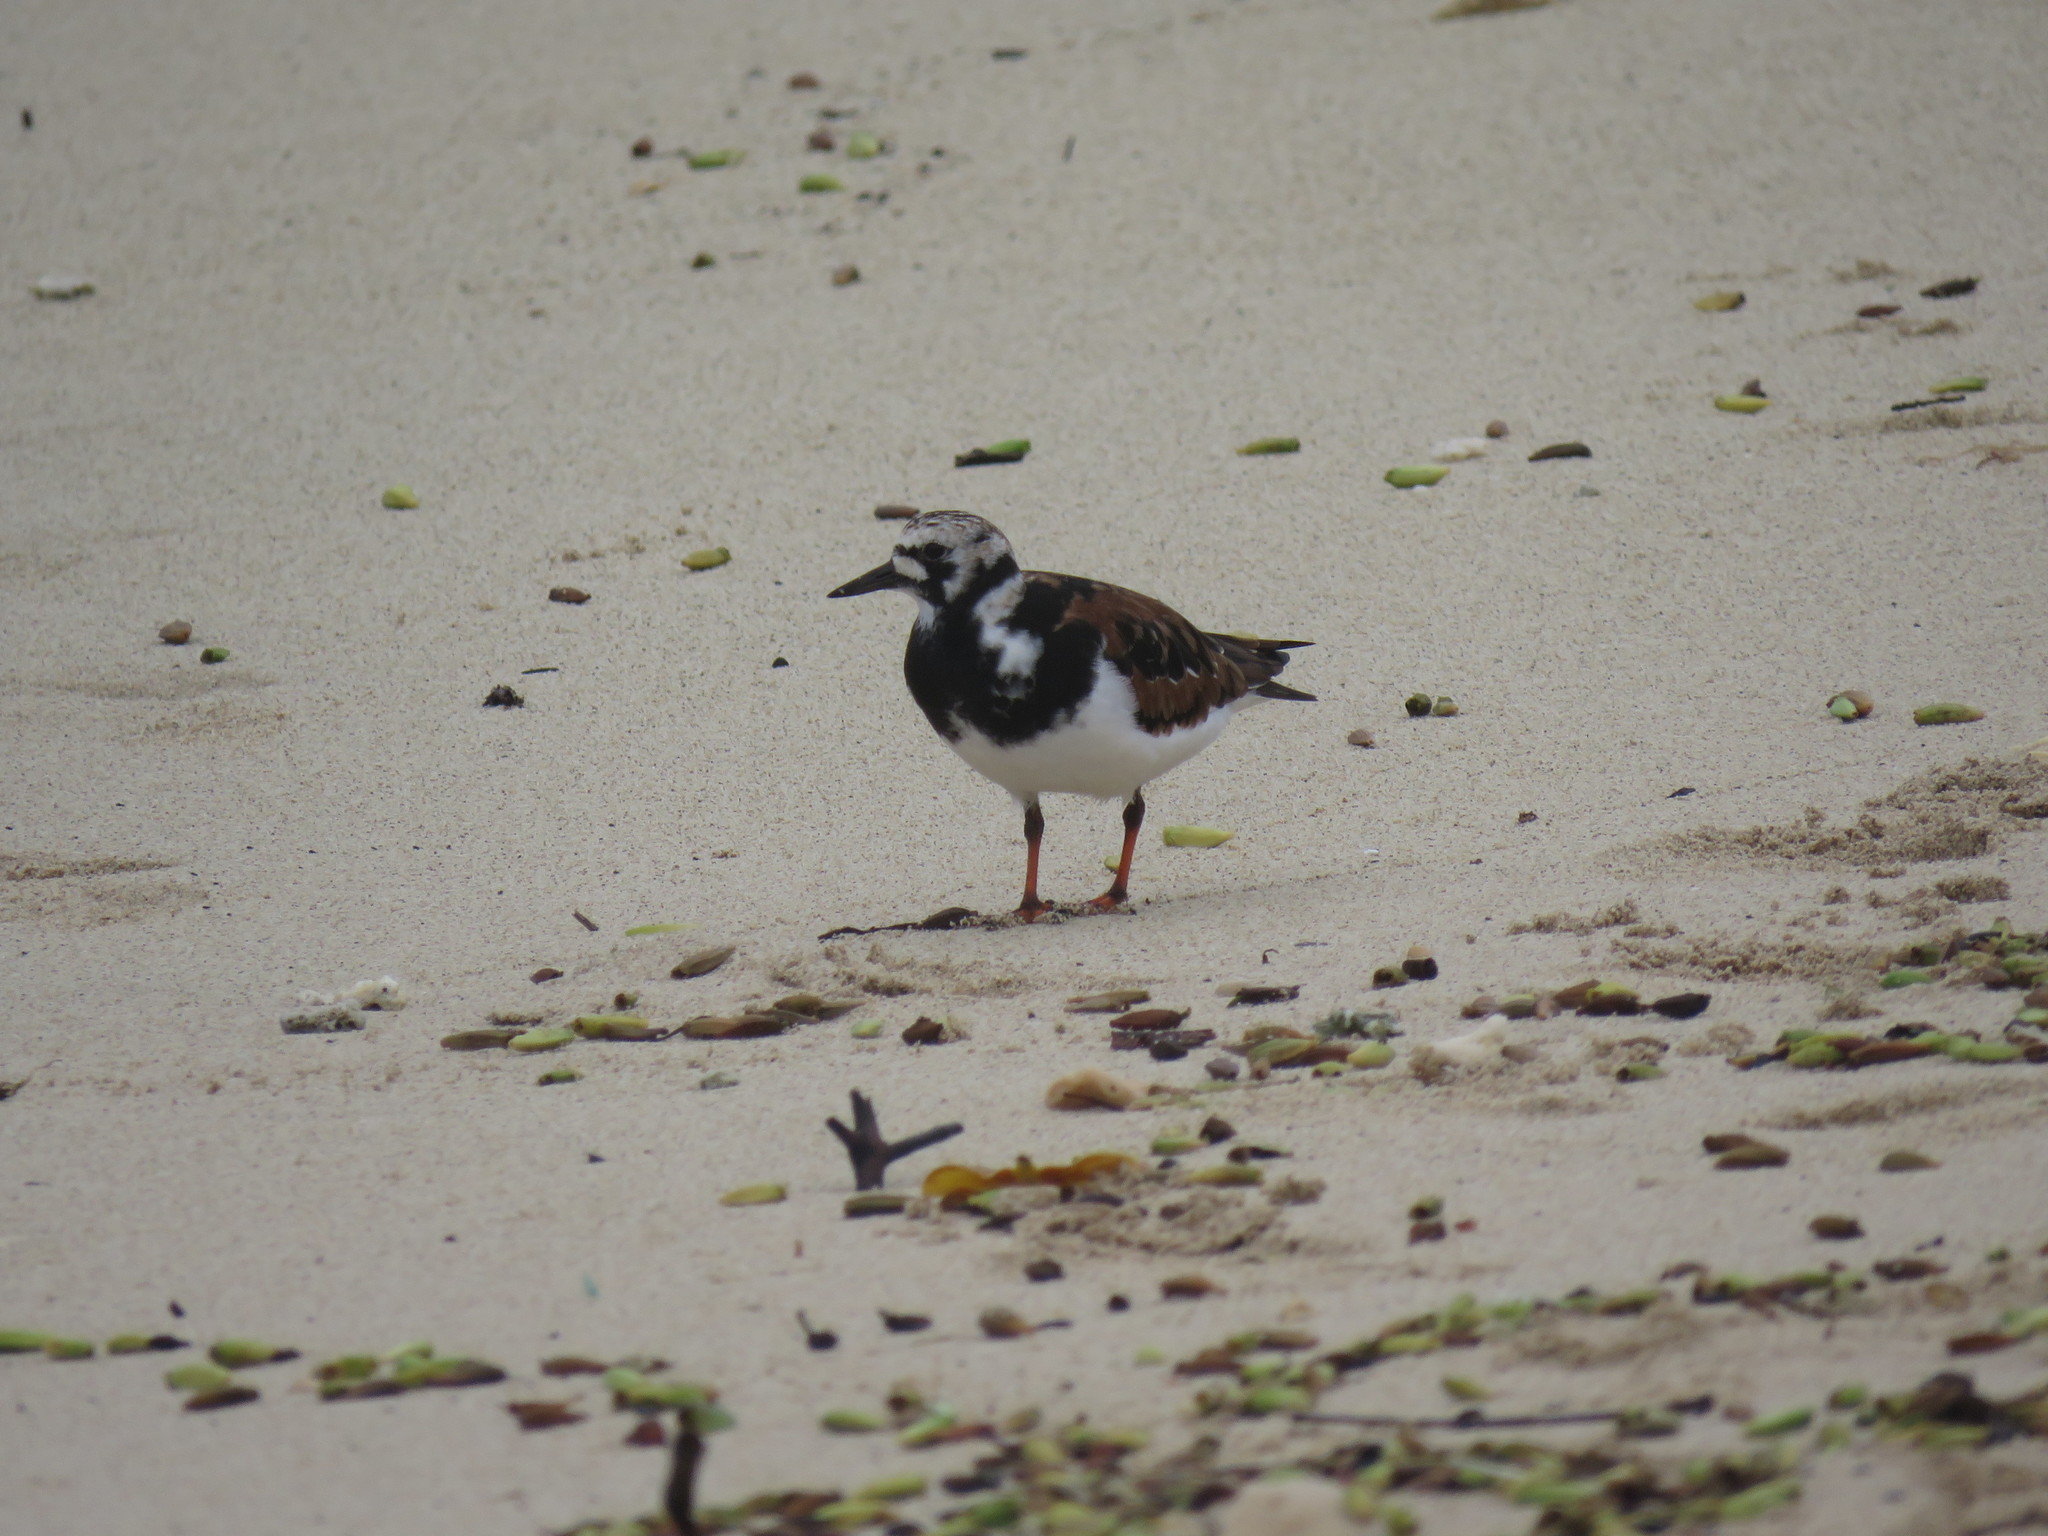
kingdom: Animalia
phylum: Chordata
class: Aves
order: Charadriiformes
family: Scolopacidae
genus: Arenaria
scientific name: Arenaria interpres
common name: Ruddy turnstone
